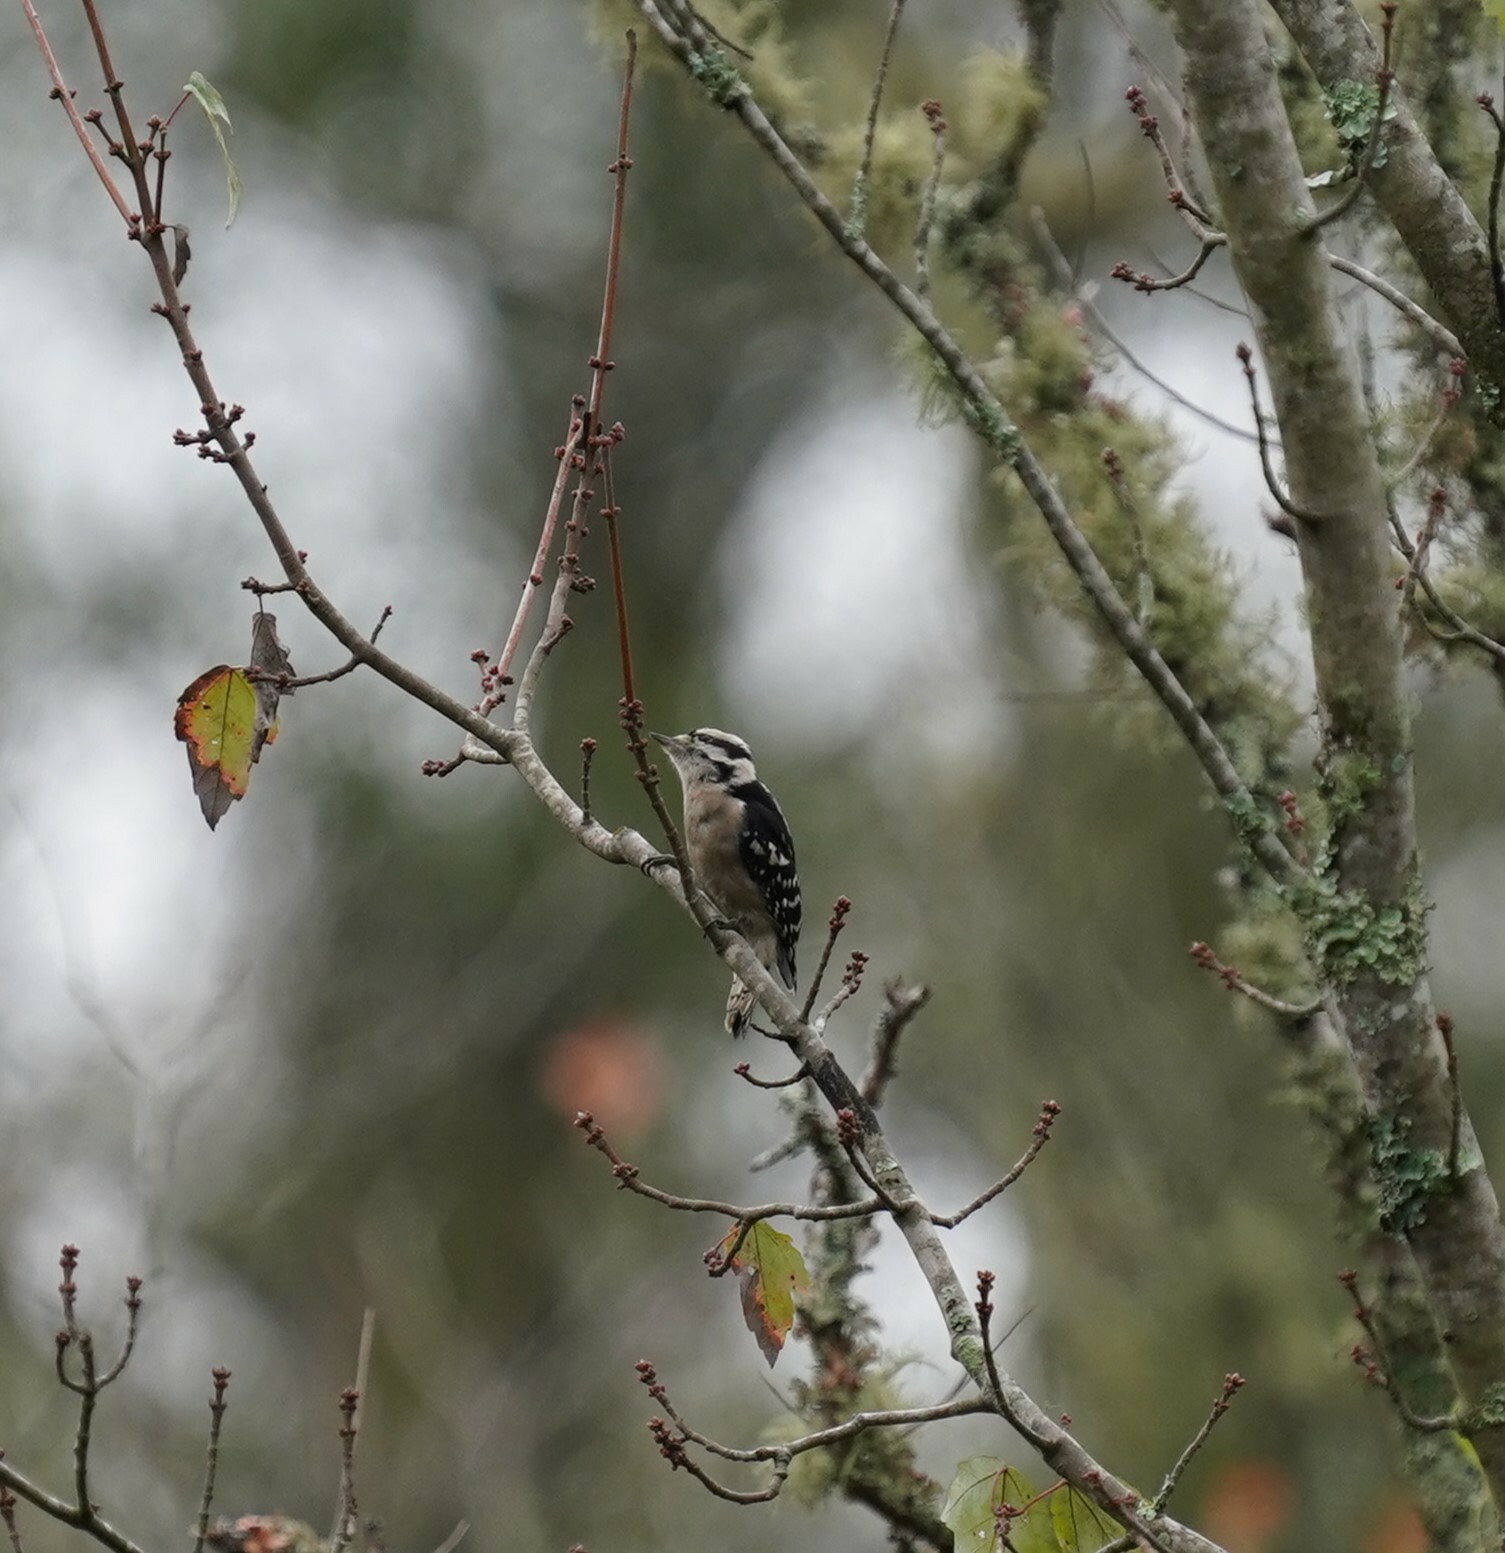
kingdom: Animalia
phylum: Chordata
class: Aves
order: Piciformes
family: Picidae
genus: Dryobates
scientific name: Dryobates pubescens
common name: Downy woodpecker
